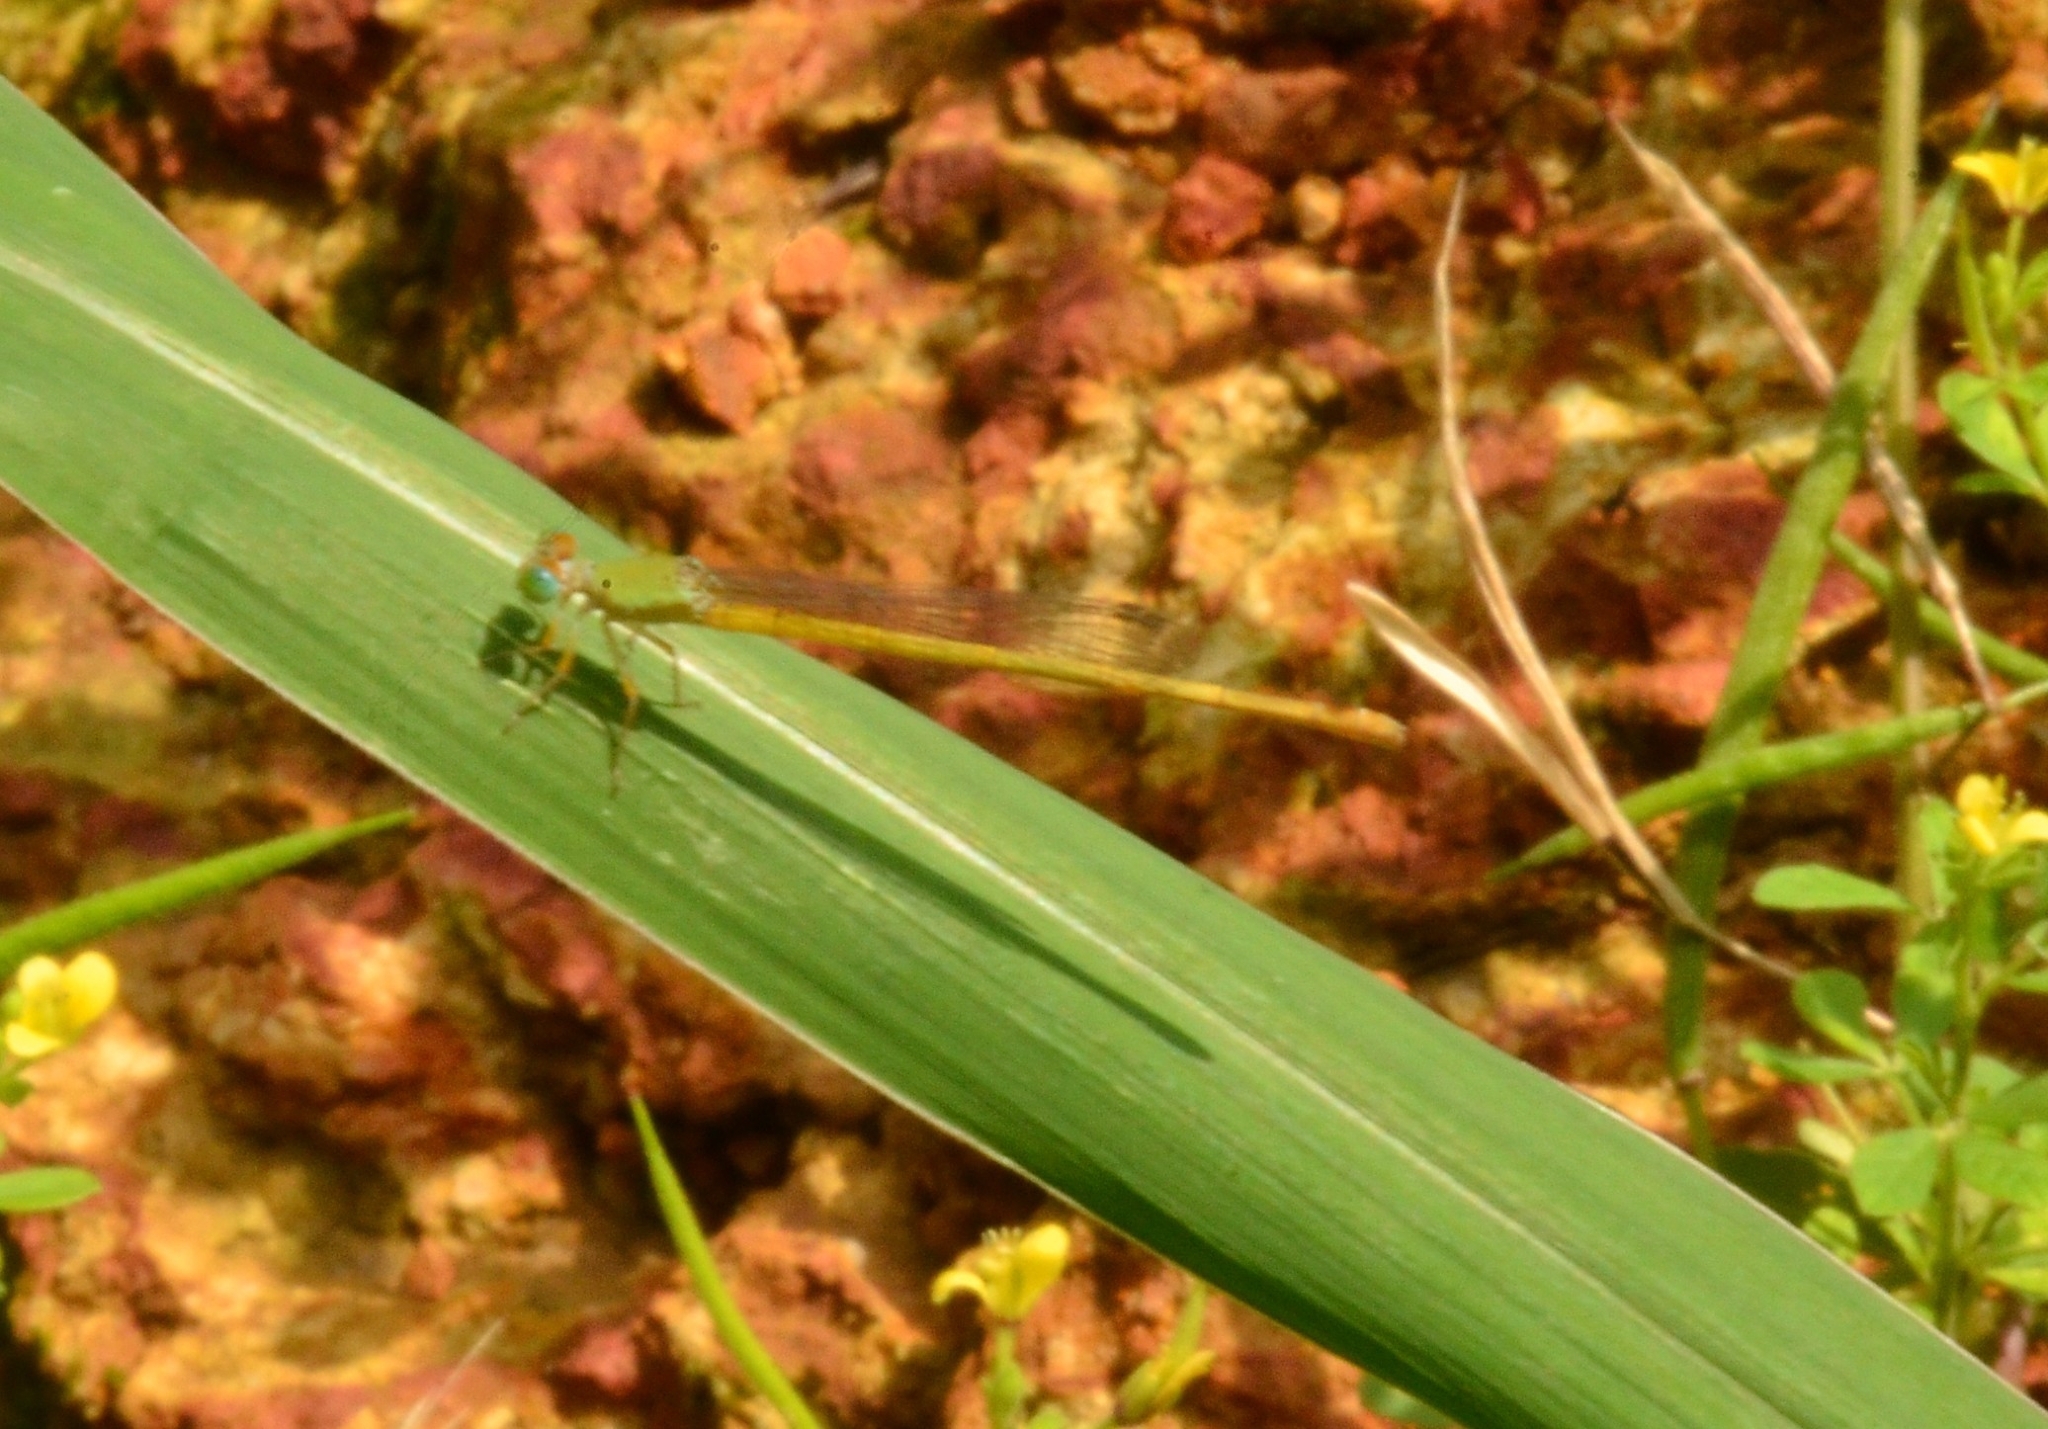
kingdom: Animalia
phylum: Arthropoda
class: Insecta
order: Odonata
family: Coenagrionidae
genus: Ceriagrion
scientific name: Ceriagrion coromandelianum
